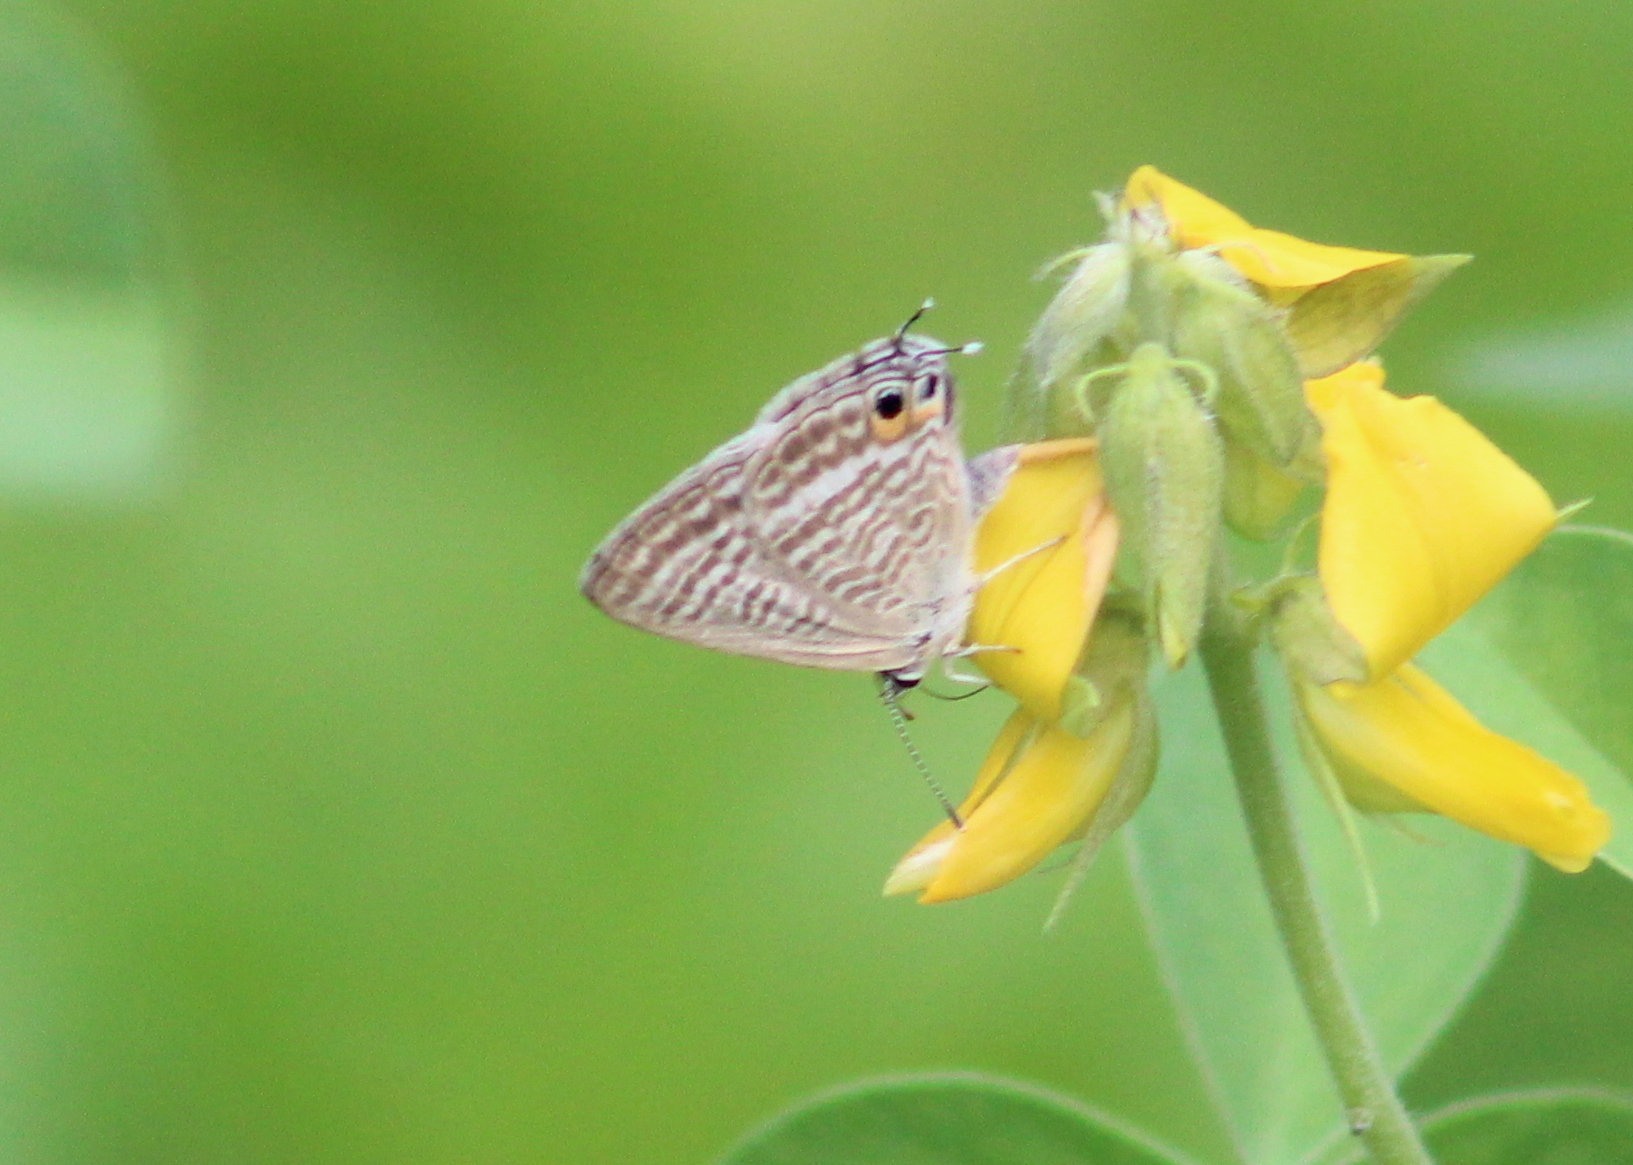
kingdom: Animalia
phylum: Arthropoda
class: Insecta
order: Lepidoptera
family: Lycaenidae
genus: Lampides
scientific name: Lampides boeticus
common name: Long-tailed blue
